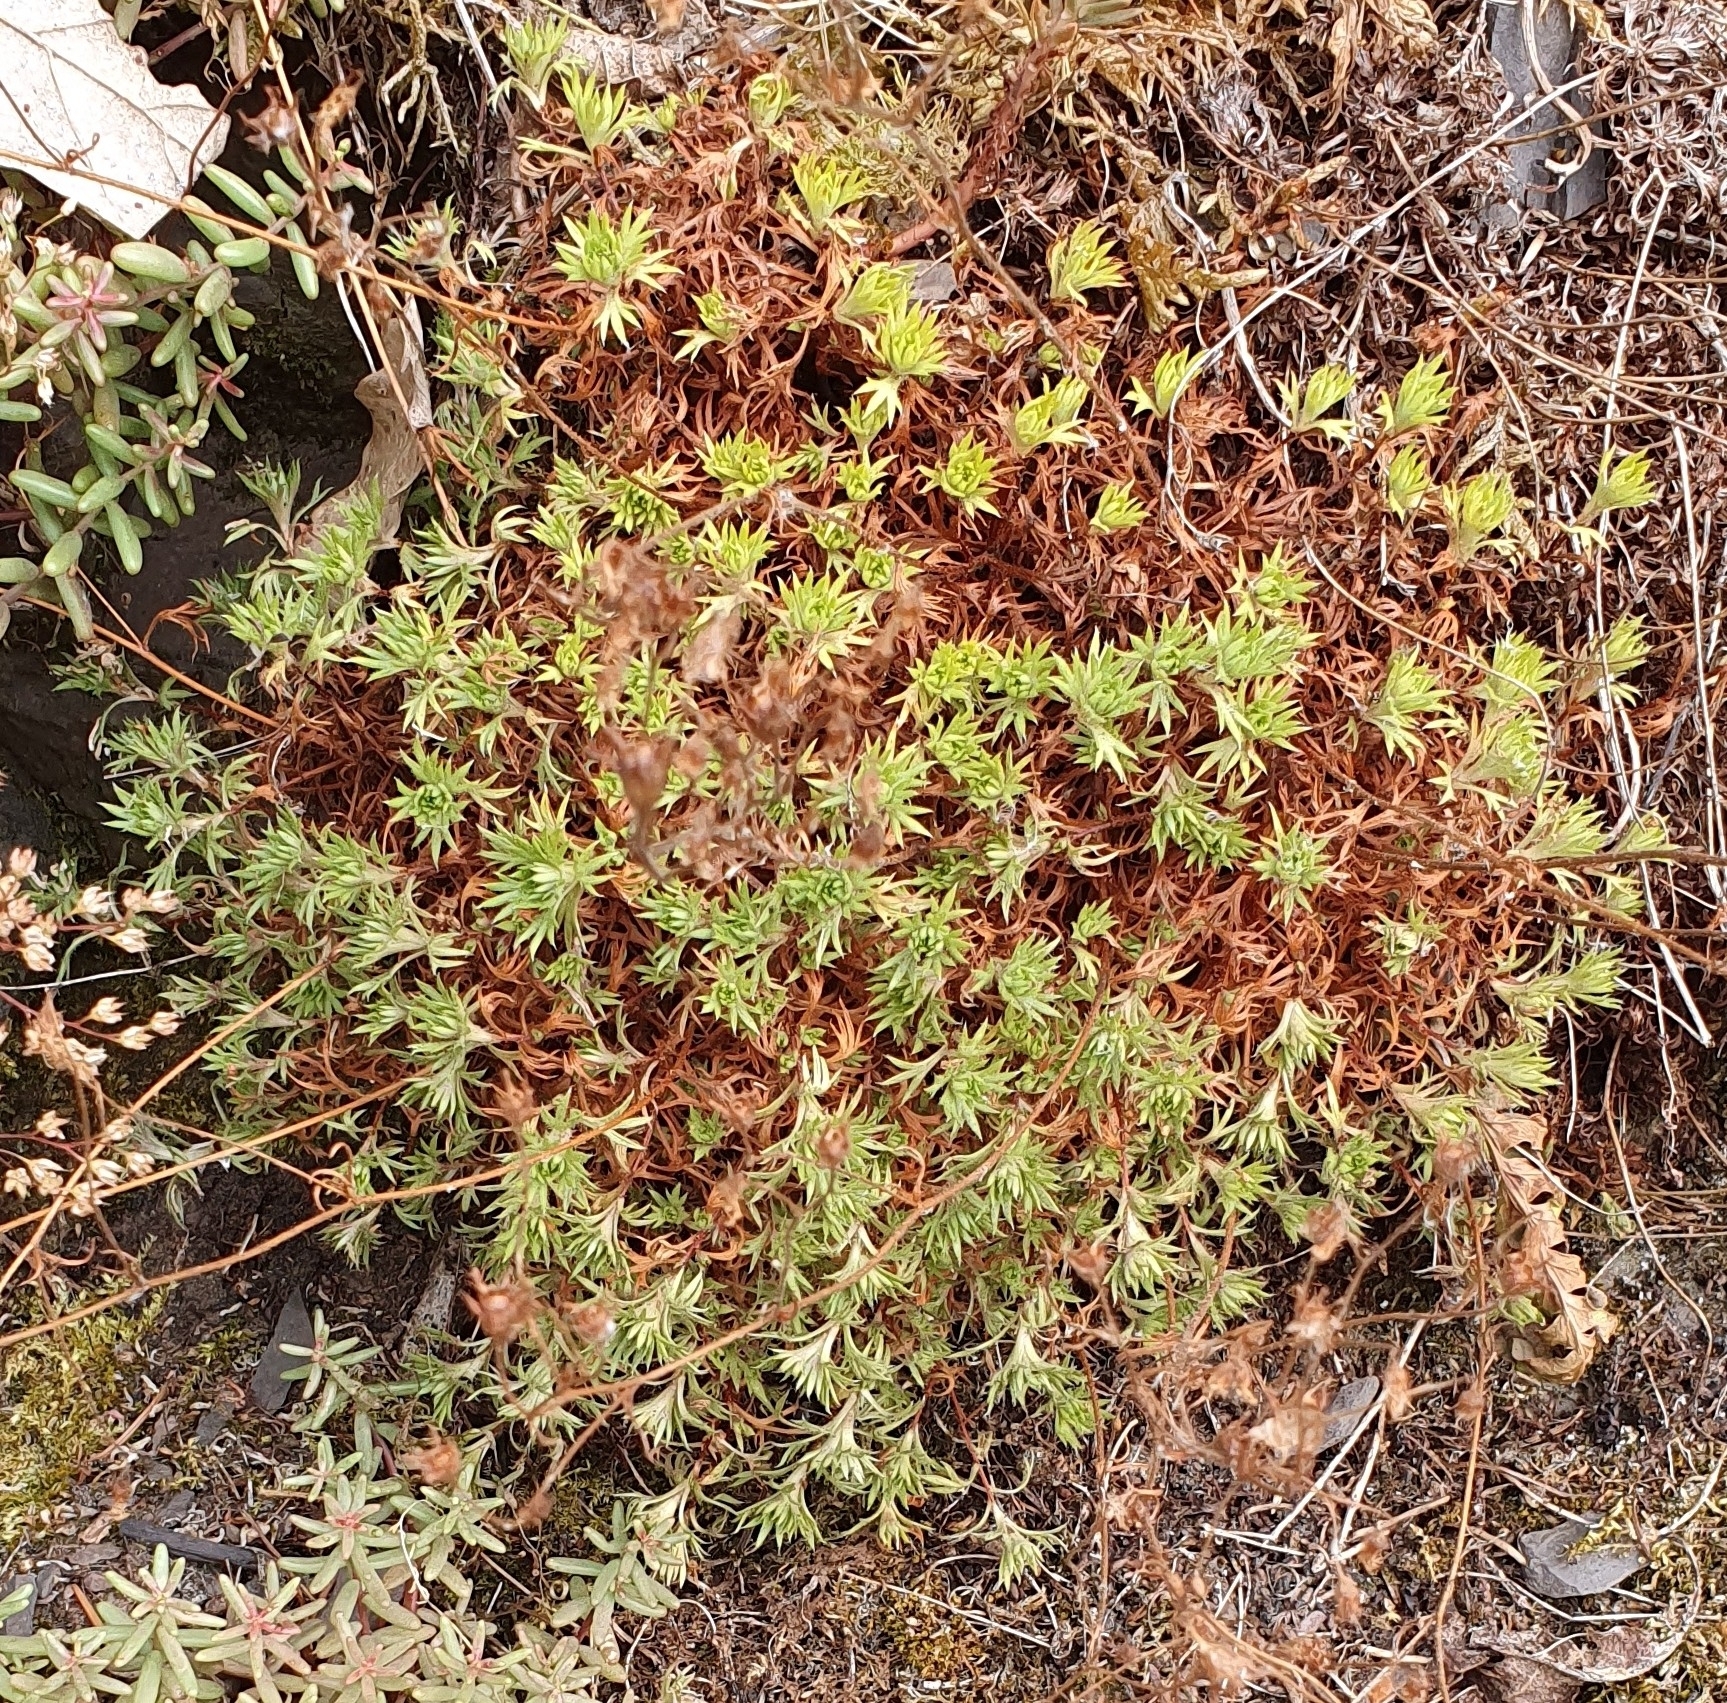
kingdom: Plantae
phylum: Tracheophyta
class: Magnoliopsida
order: Saxifragales
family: Saxifragaceae
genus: Saxifraga
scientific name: Saxifraga rosacea
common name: Irish saxifrage
